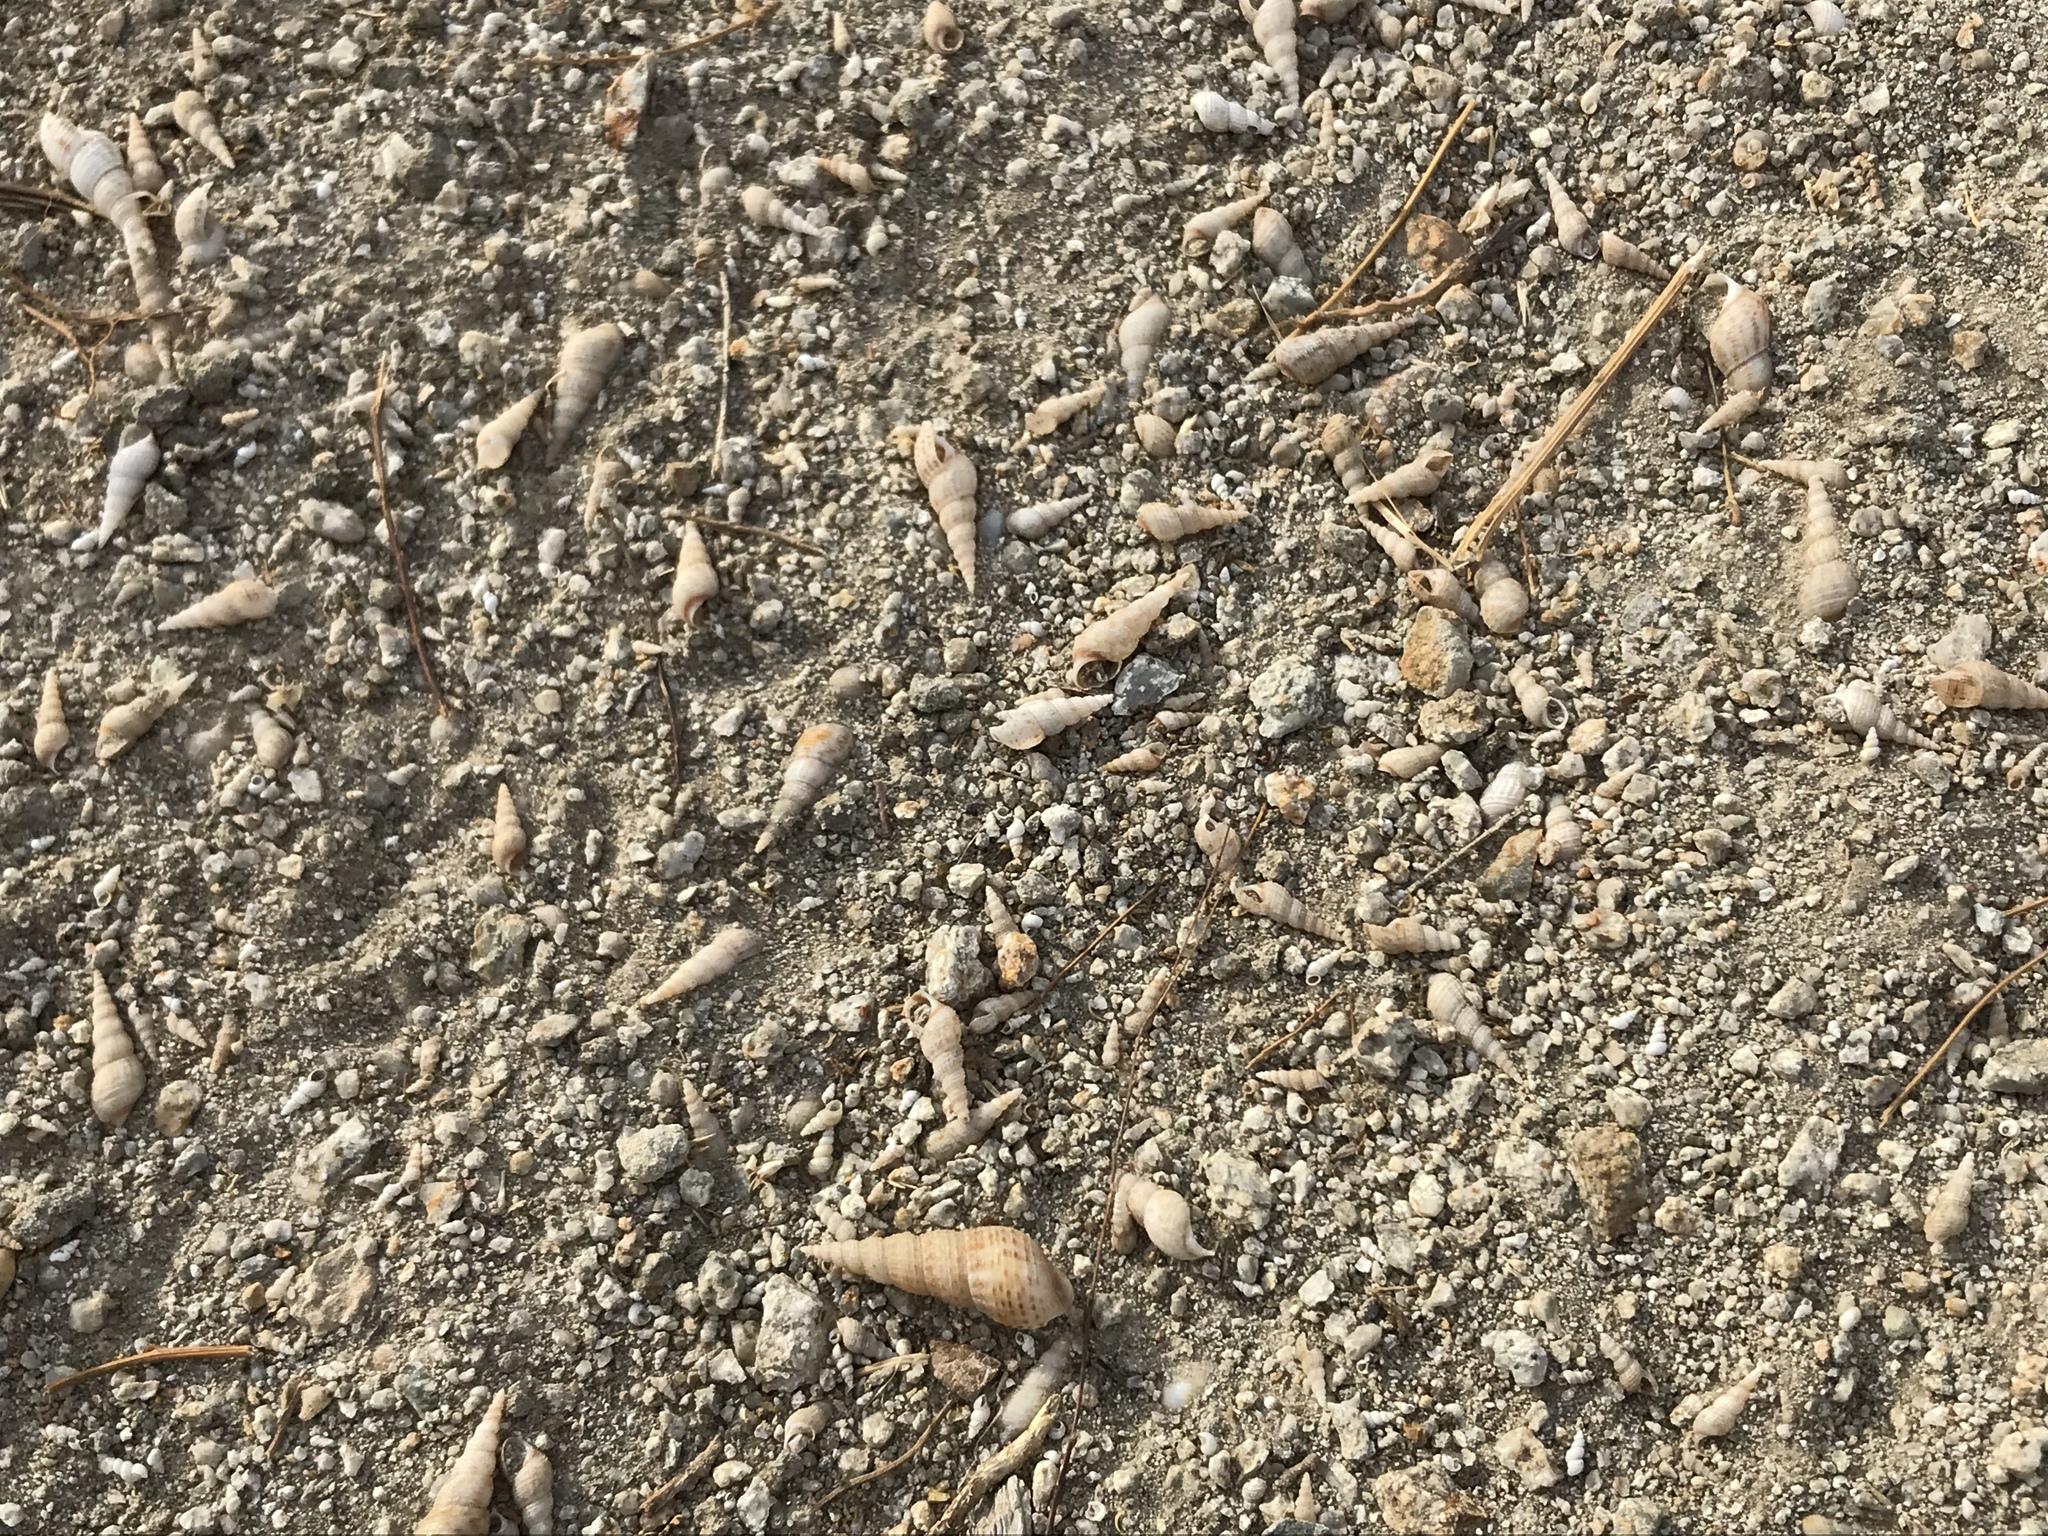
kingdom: Animalia
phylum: Mollusca
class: Gastropoda
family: Thiaridae
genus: Melanoides
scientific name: Melanoides tuberculata
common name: Red-rim melania
